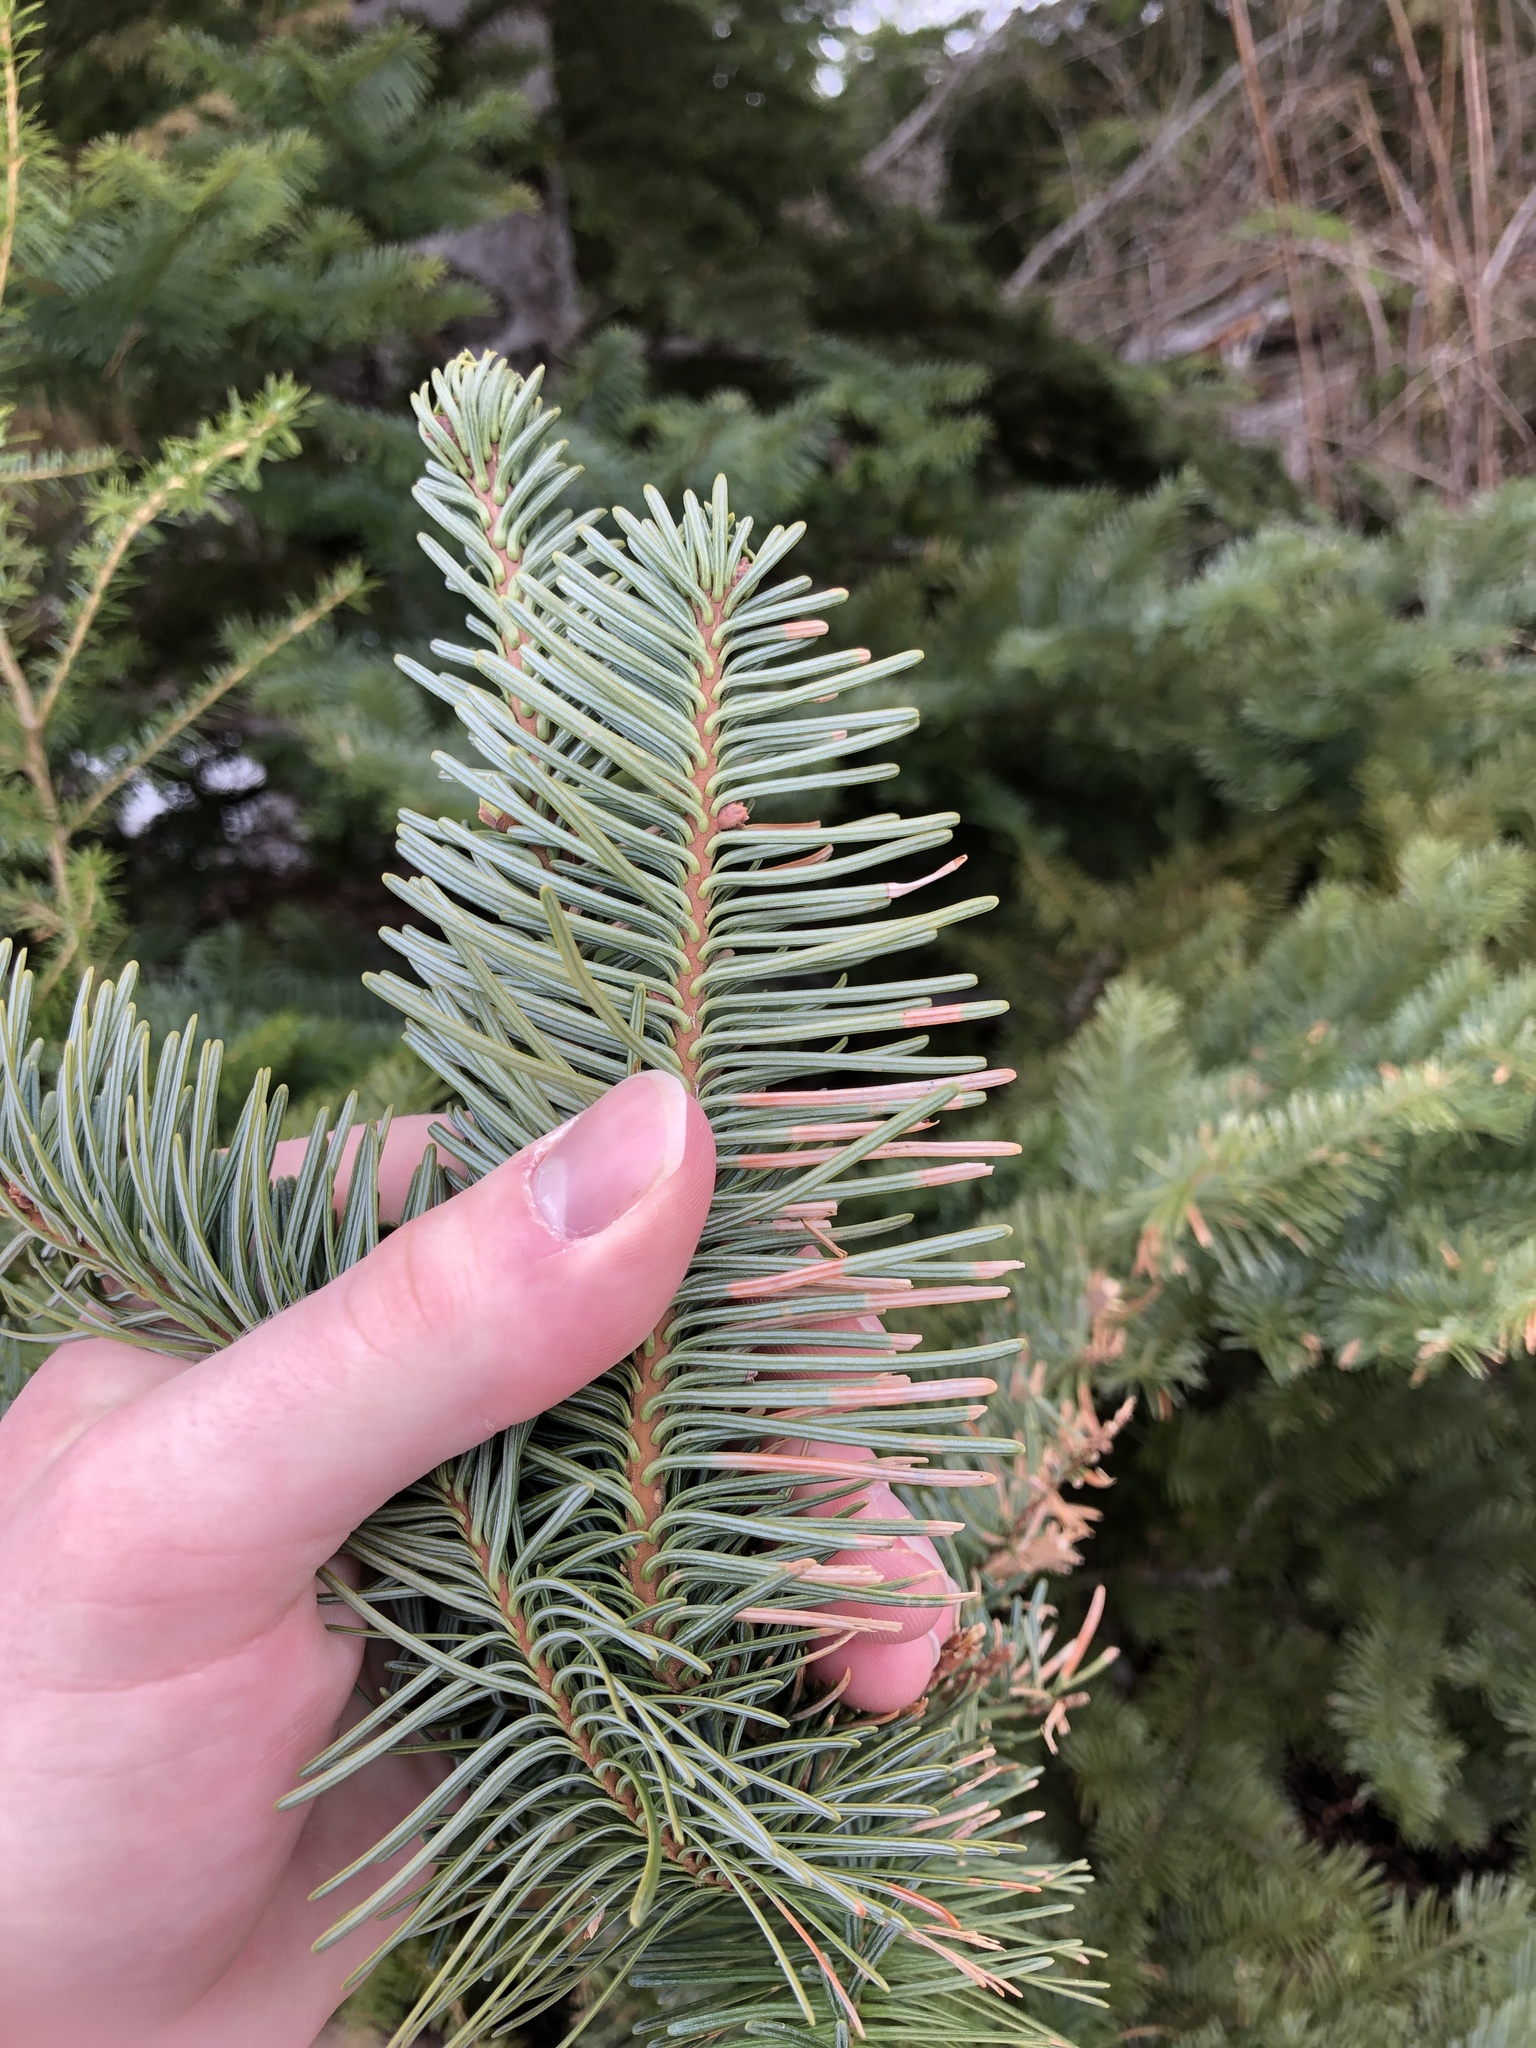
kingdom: Plantae
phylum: Tracheophyta
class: Pinopsida
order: Pinales
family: Pinaceae
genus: Abies
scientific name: Abies procera
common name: Noble fir
